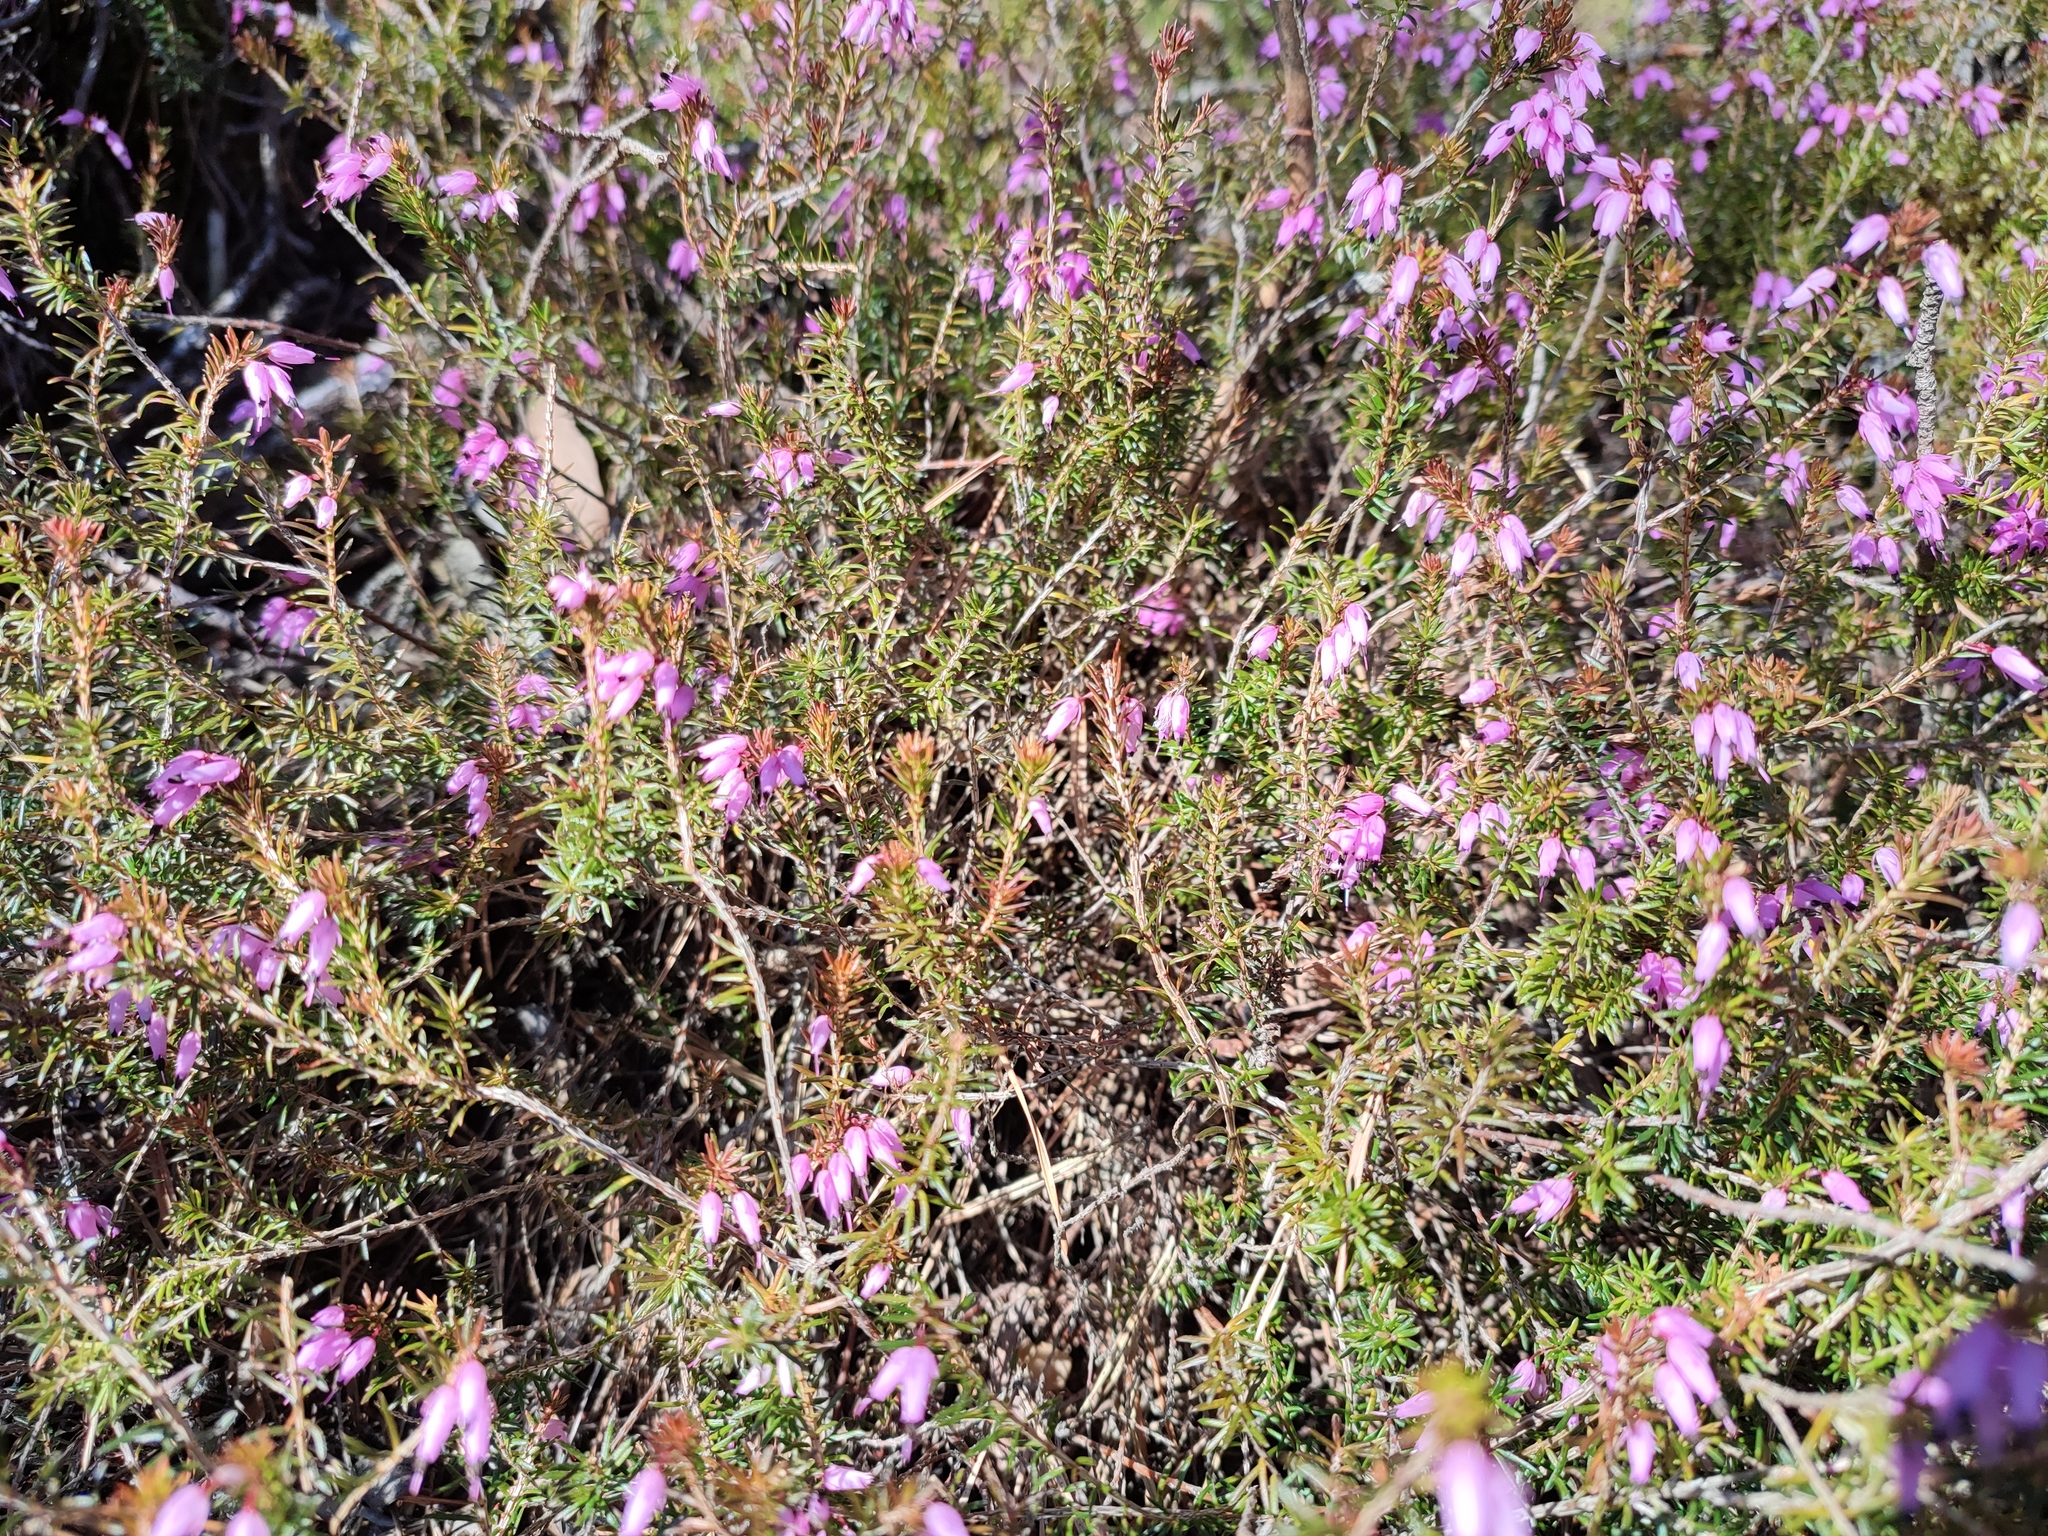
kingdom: Plantae
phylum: Tracheophyta
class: Magnoliopsida
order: Ericales
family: Ericaceae
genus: Erica
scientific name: Erica carnea
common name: Winter heath
